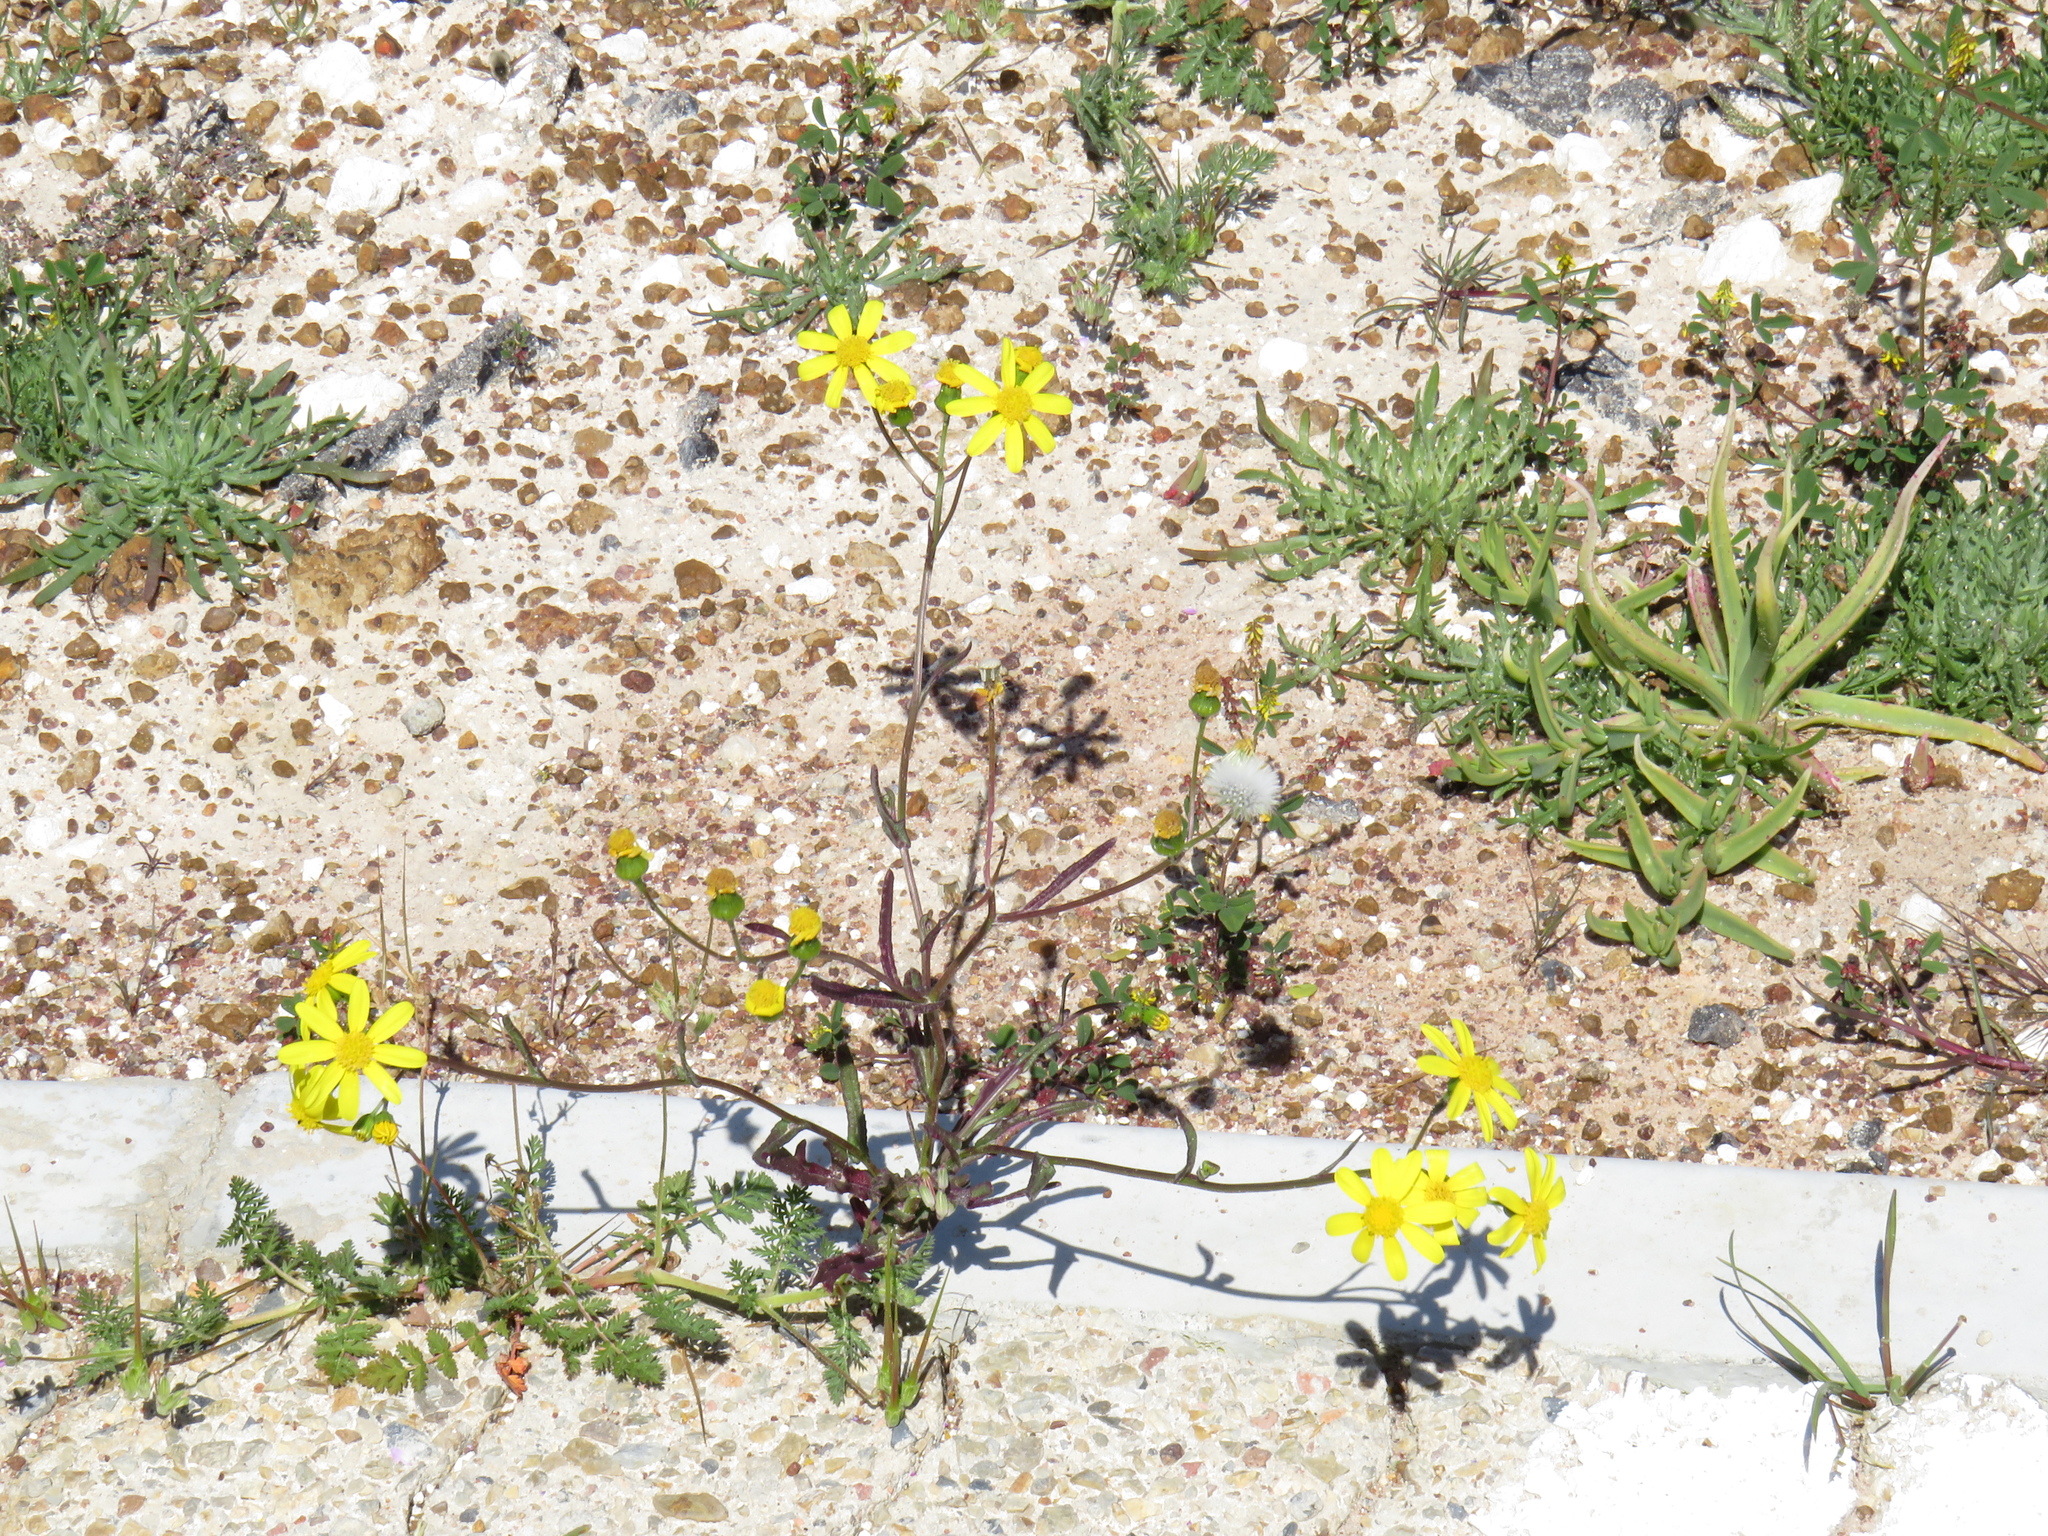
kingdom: Plantae
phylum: Tracheophyta
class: Magnoliopsida
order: Asterales
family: Asteraceae
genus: Senecio
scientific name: Senecio littoreus
